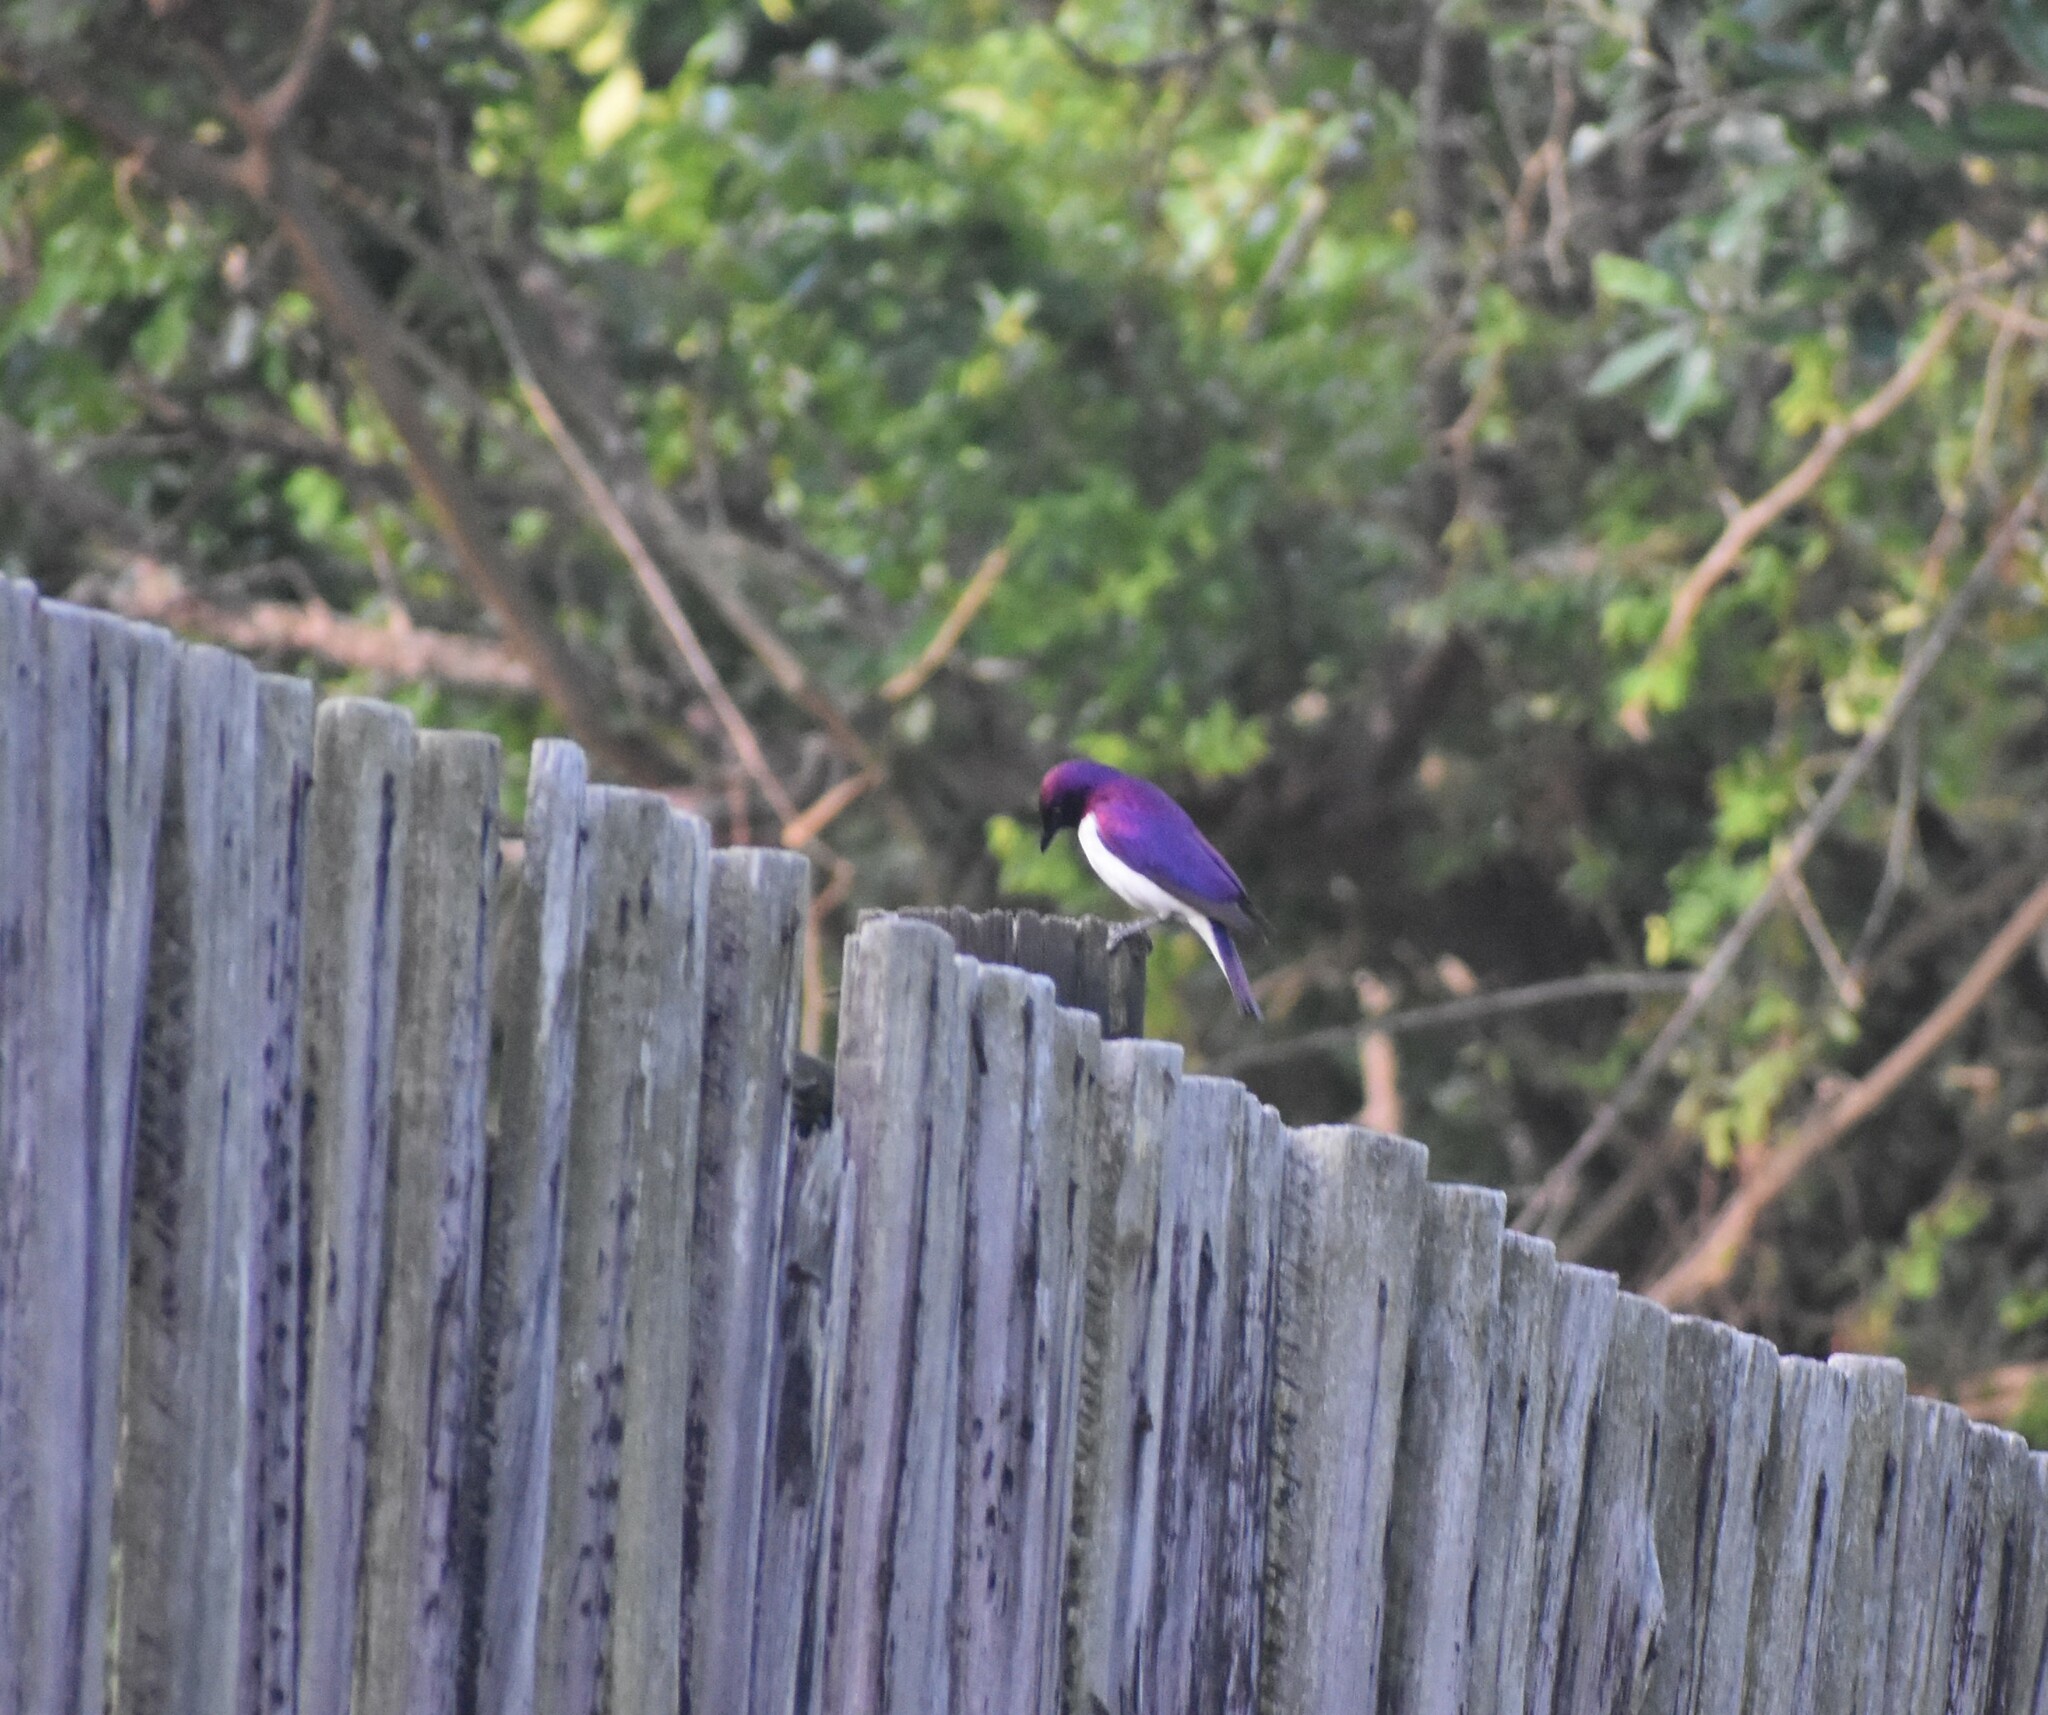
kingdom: Animalia
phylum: Chordata
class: Aves
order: Passeriformes
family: Sturnidae
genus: Cinnyricinclus
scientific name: Cinnyricinclus leucogaster
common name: Violet-backed starling
